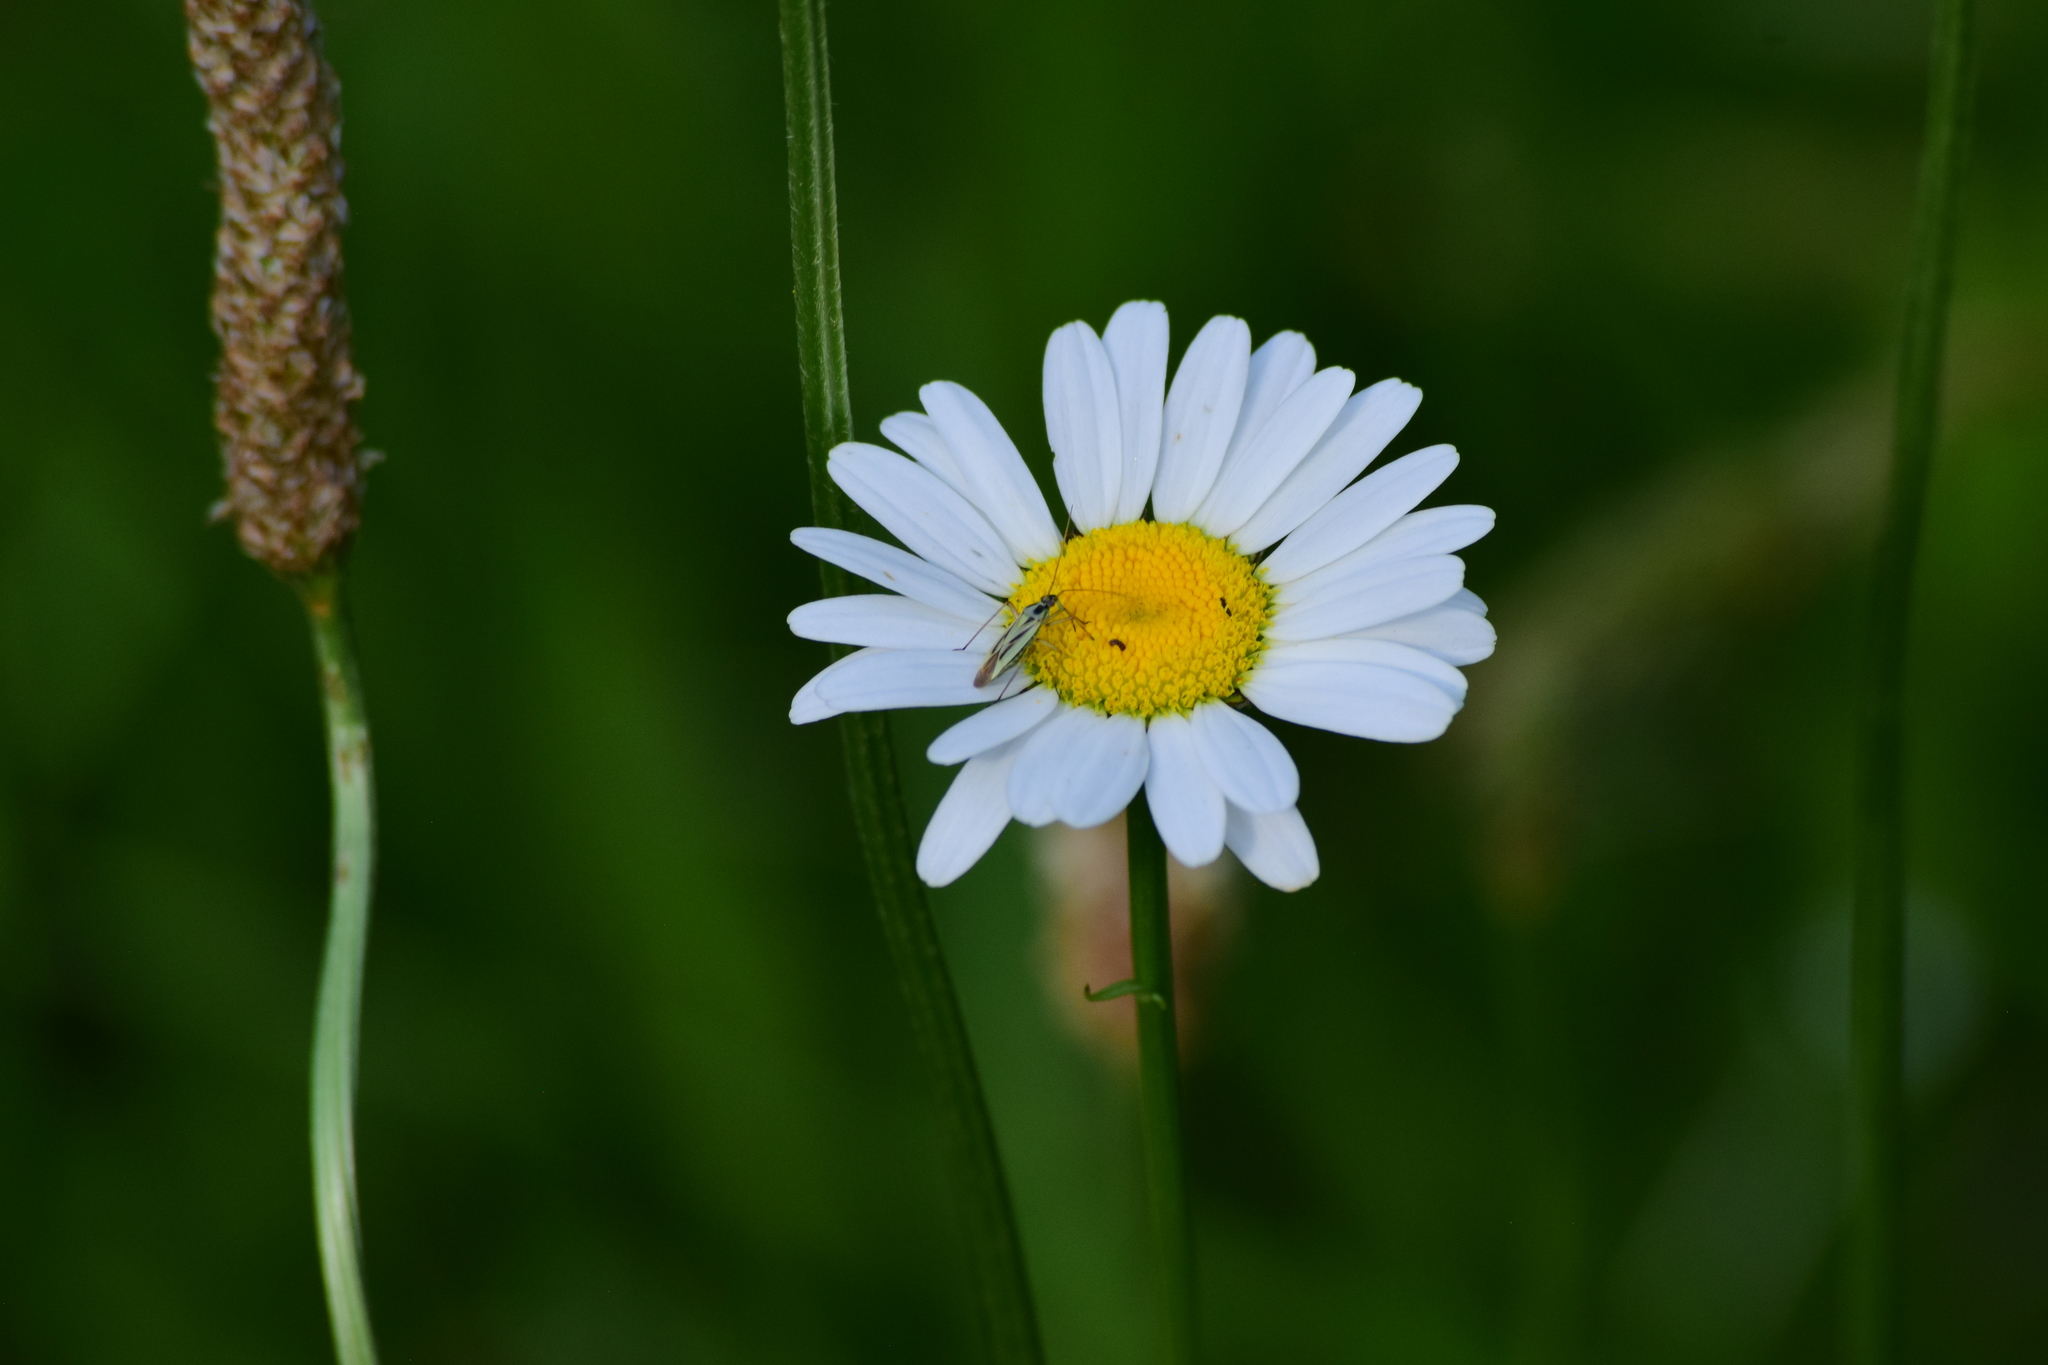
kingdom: Animalia
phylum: Arthropoda
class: Insecta
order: Hemiptera
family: Miridae
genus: Stenotus
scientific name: Stenotus binotatus
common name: Plant bug
